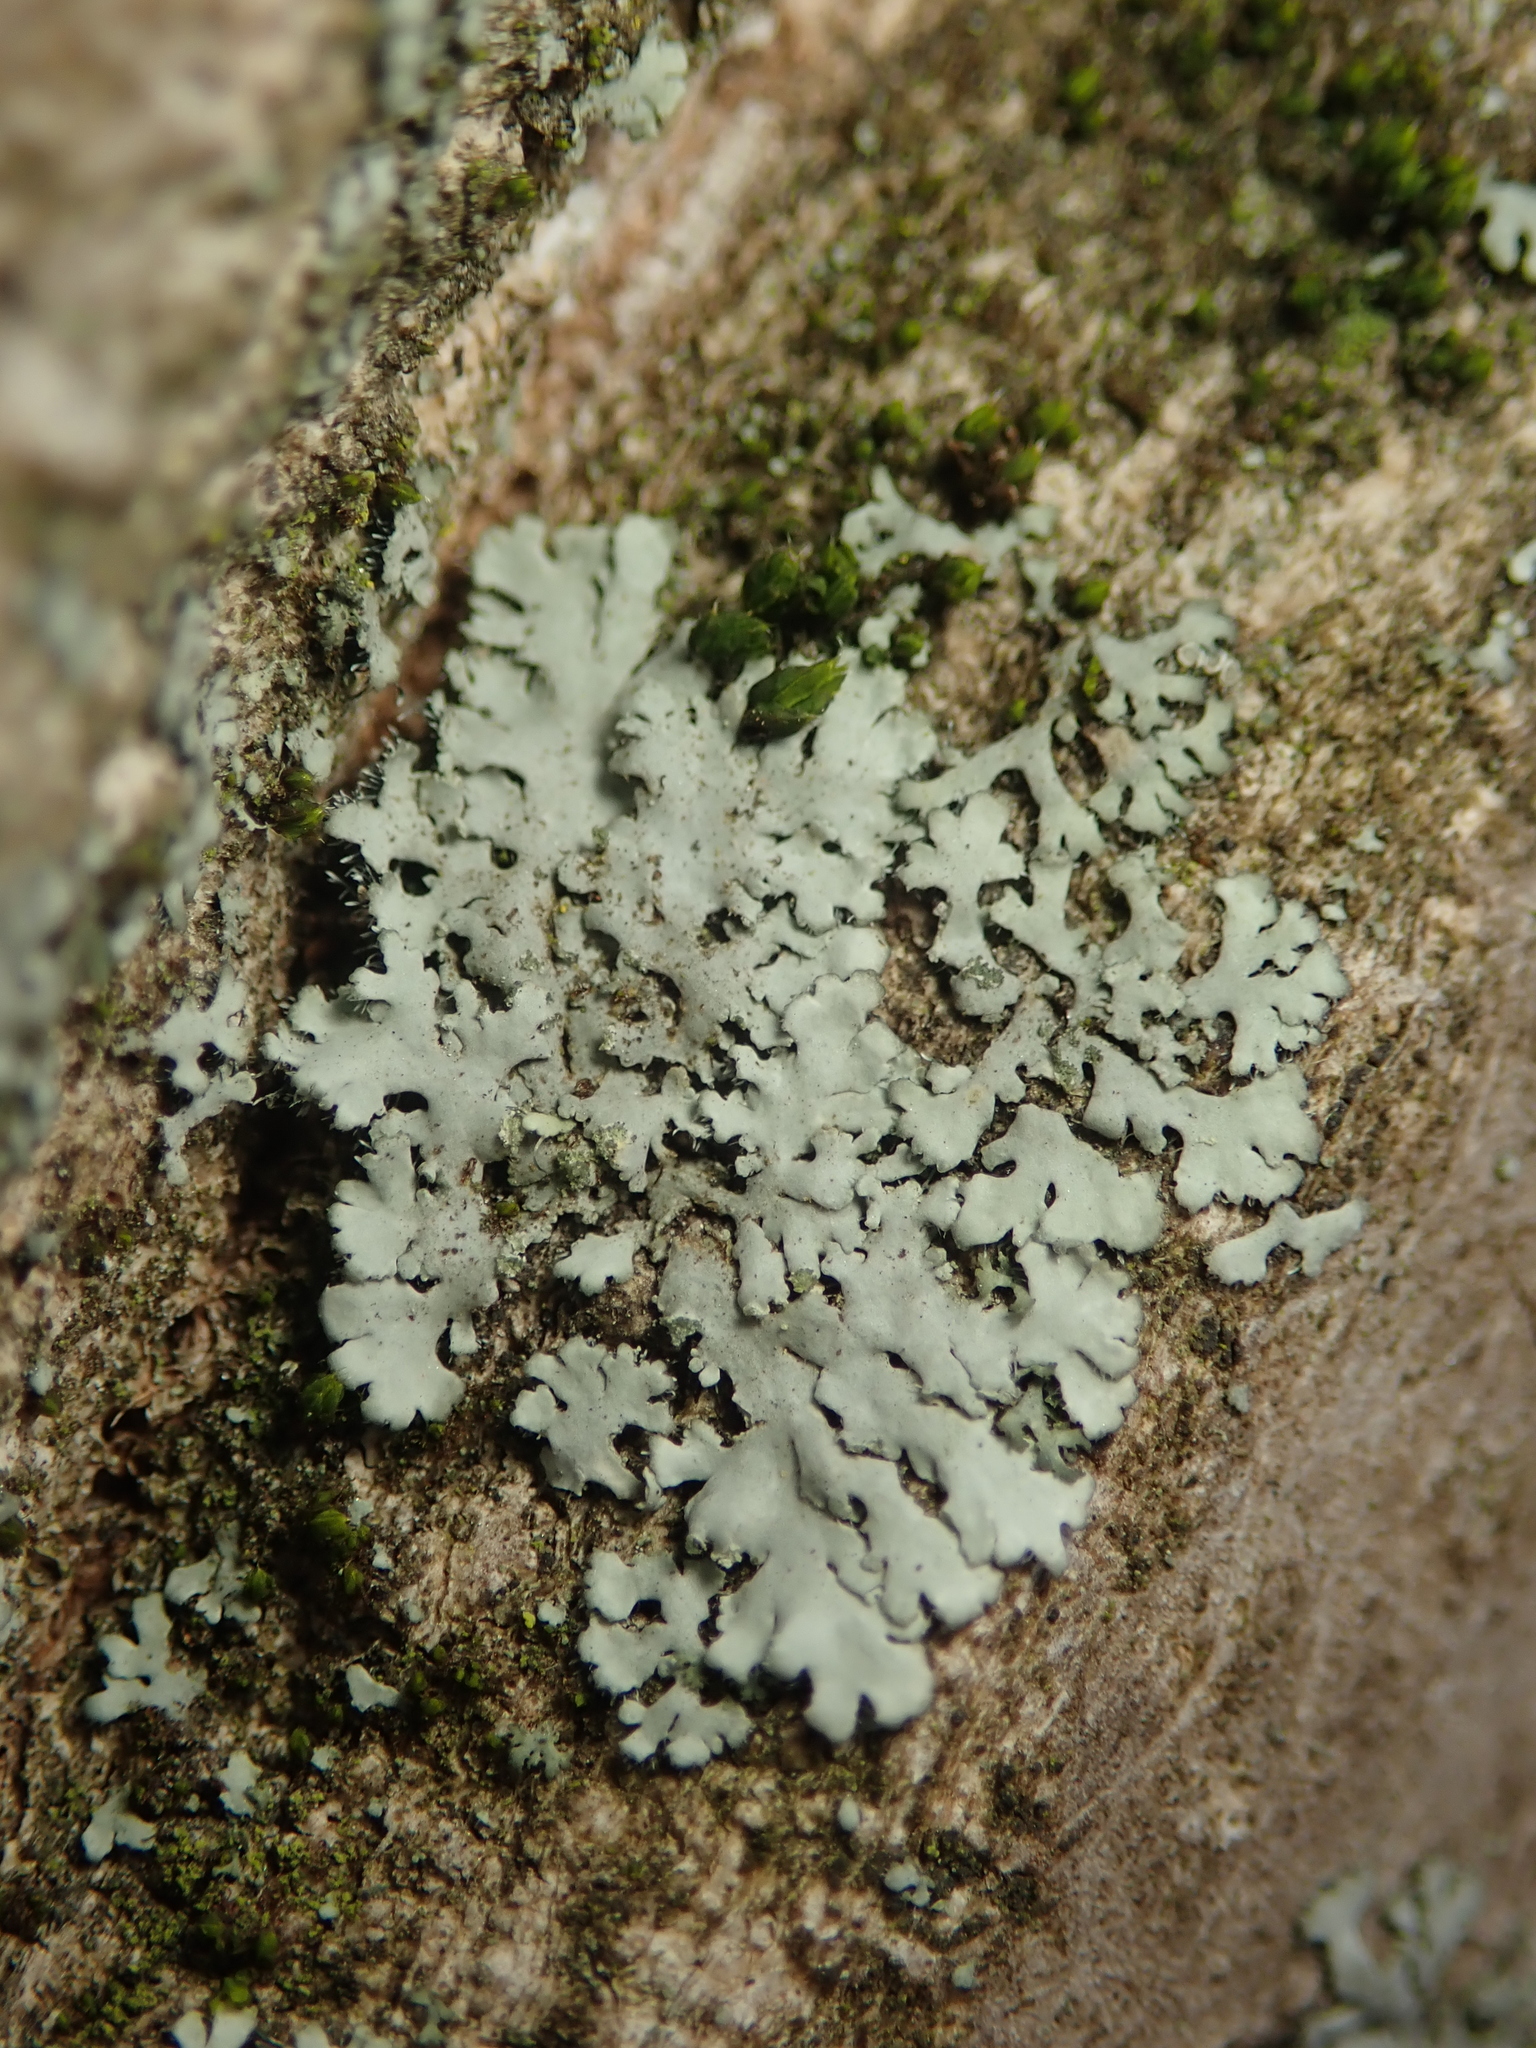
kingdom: Fungi
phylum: Ascomycota
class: Lecanoromycetes
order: Caliciales
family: Physciaceae
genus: Phaeophyscia
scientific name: Phaeophyscia orbicularis
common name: Mealy shadow lichen
